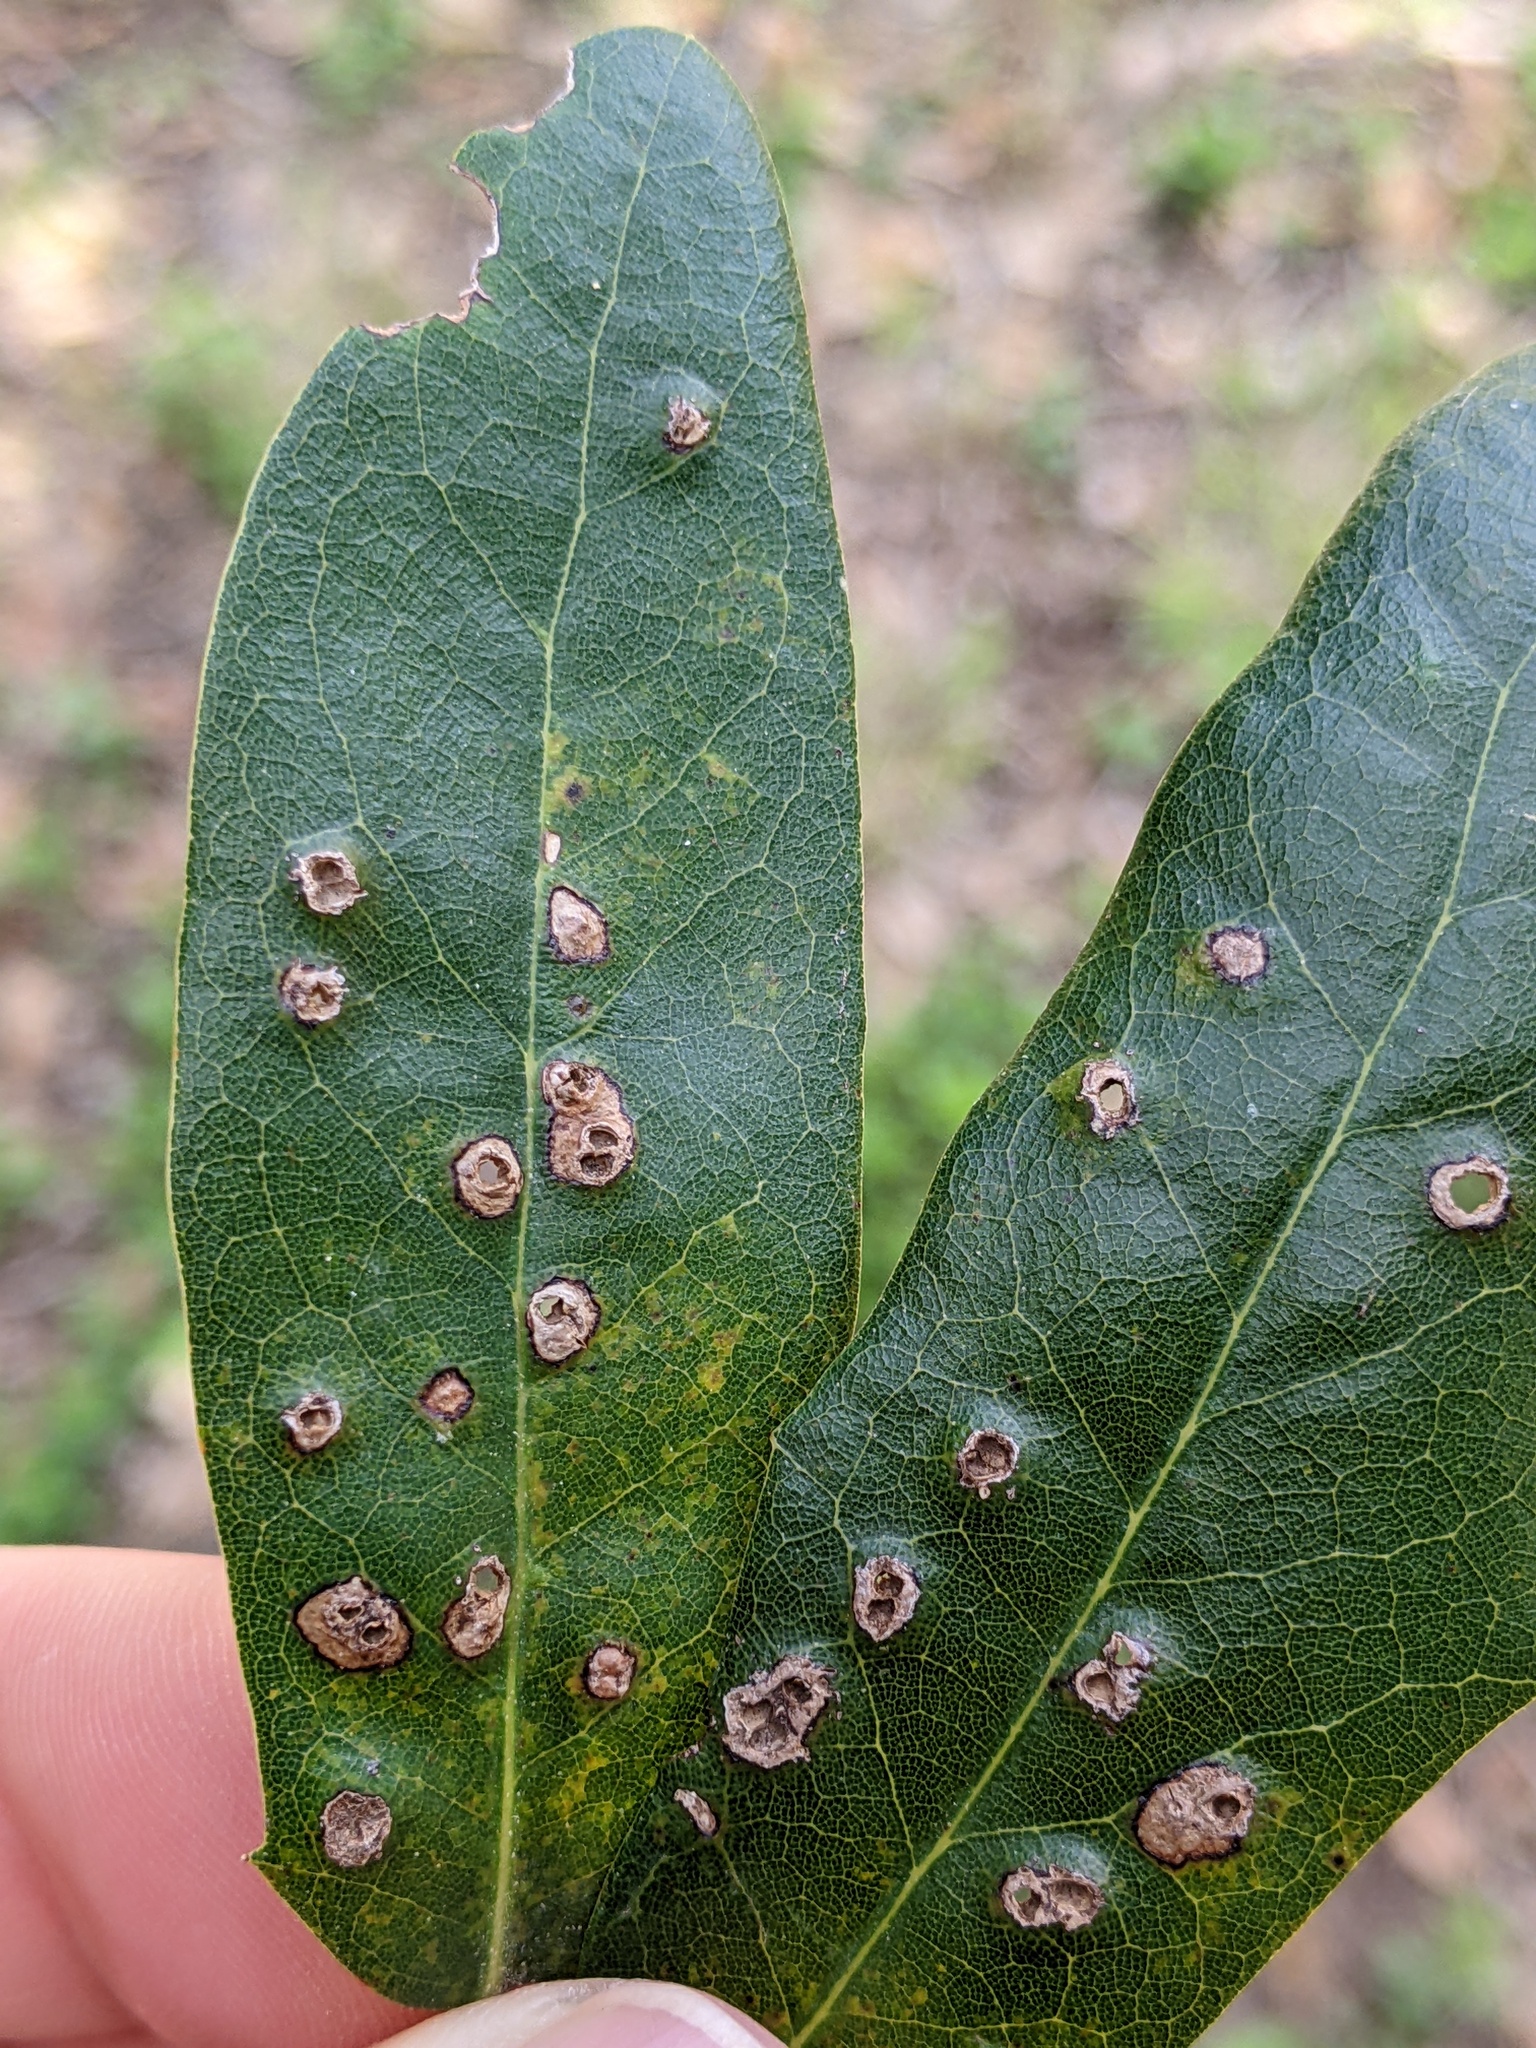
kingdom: Animalia
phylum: Arthropoda
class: Insecta
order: Hymenoptera
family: Cynipidae
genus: Neuroterus
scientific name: Neuroterus bussae
